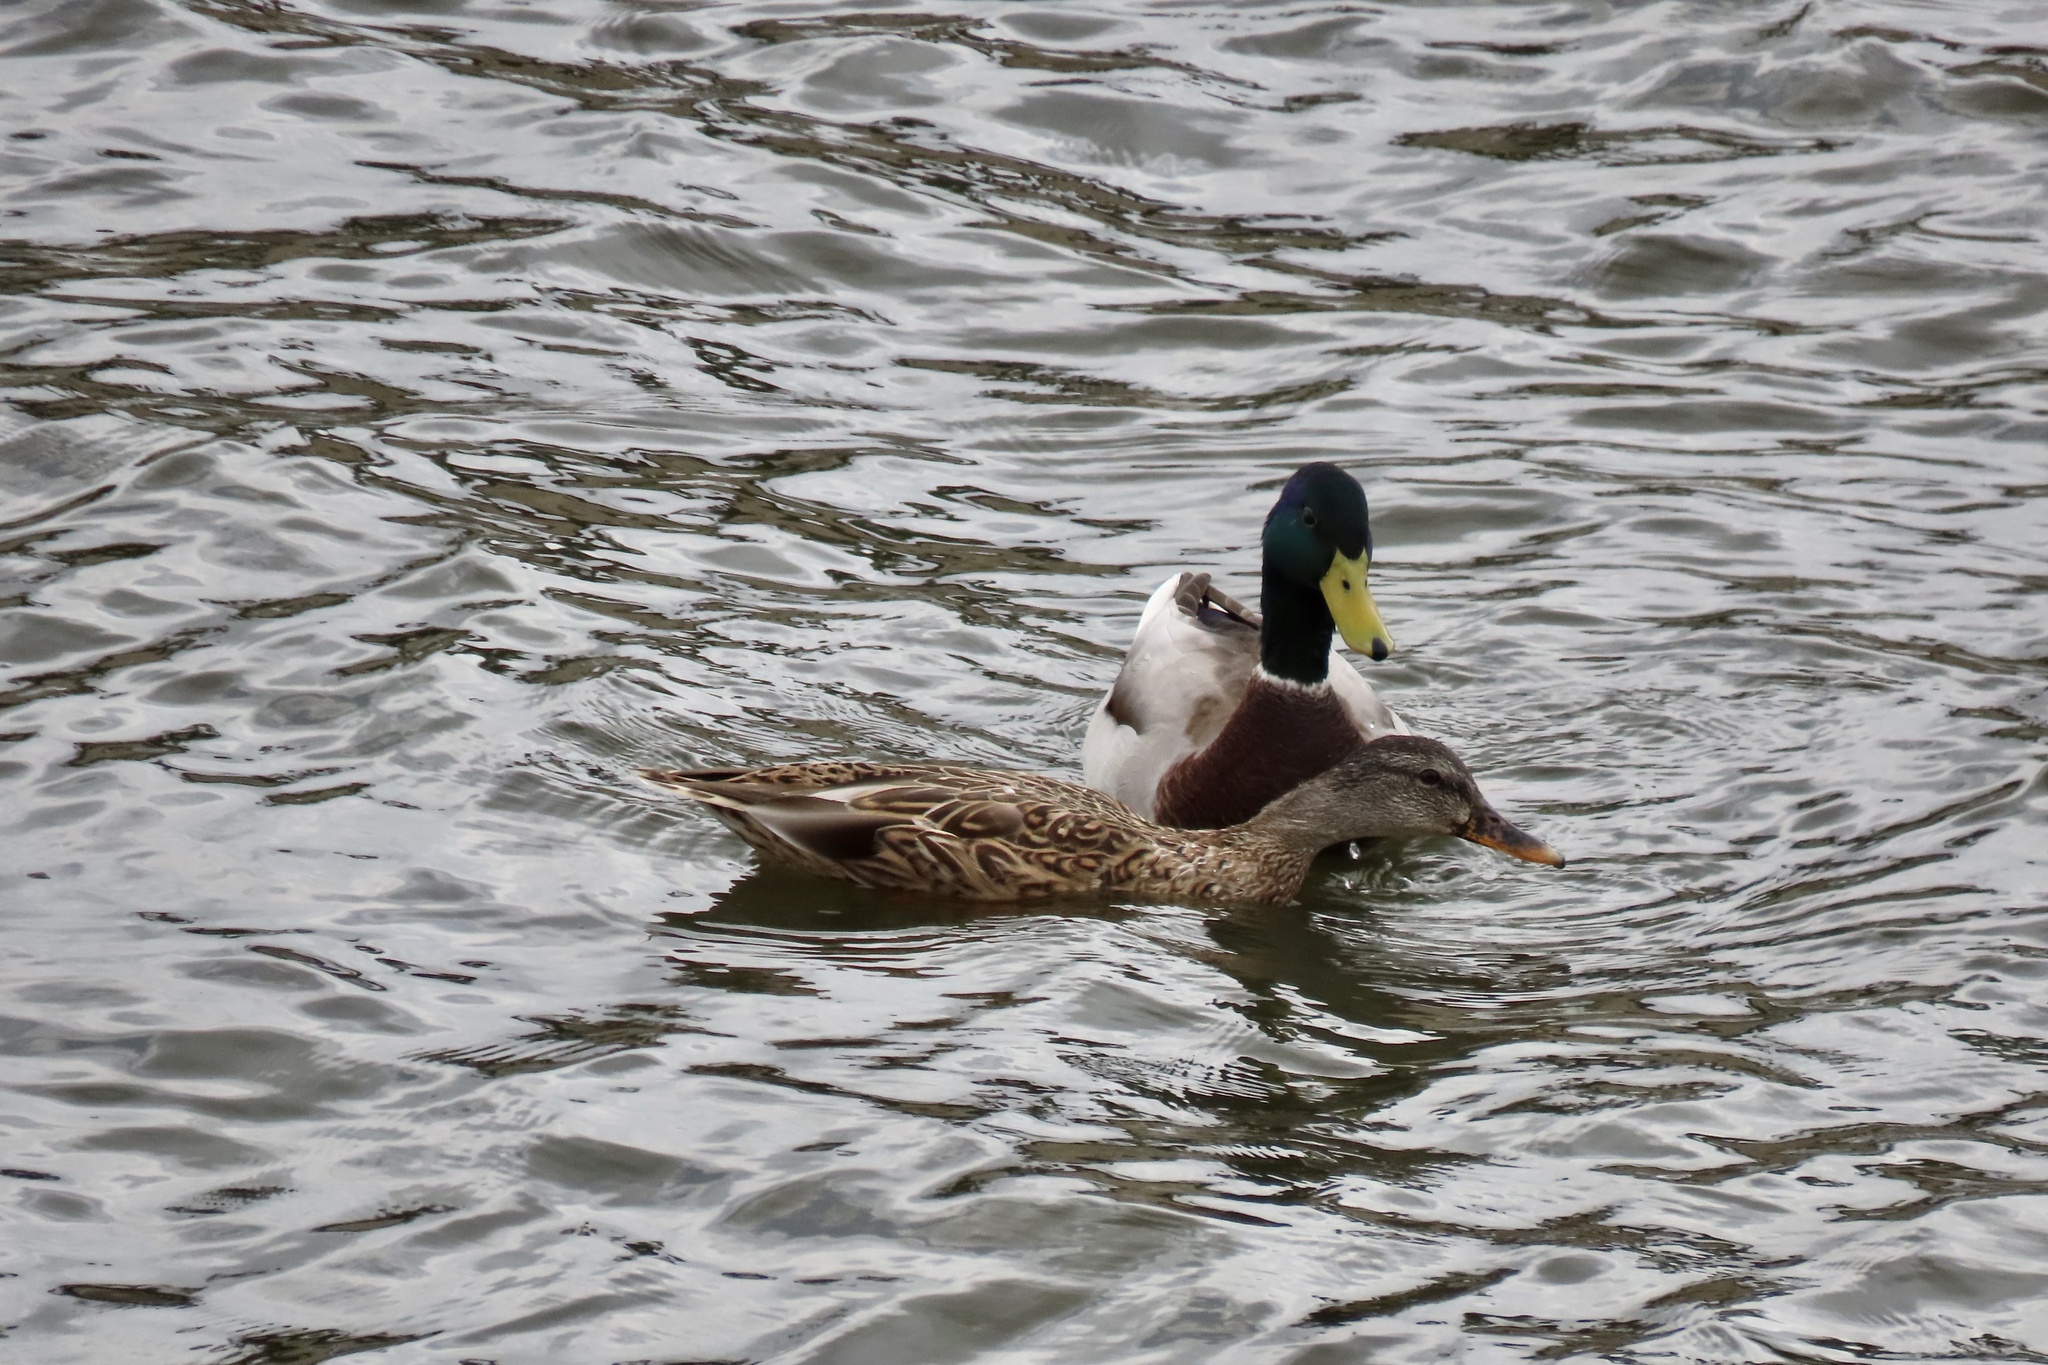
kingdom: Animalia
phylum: Chordata
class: Aves
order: Anseriformes
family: Anatidae
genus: Anas
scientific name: Anas platyrhynchos
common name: Mallard
